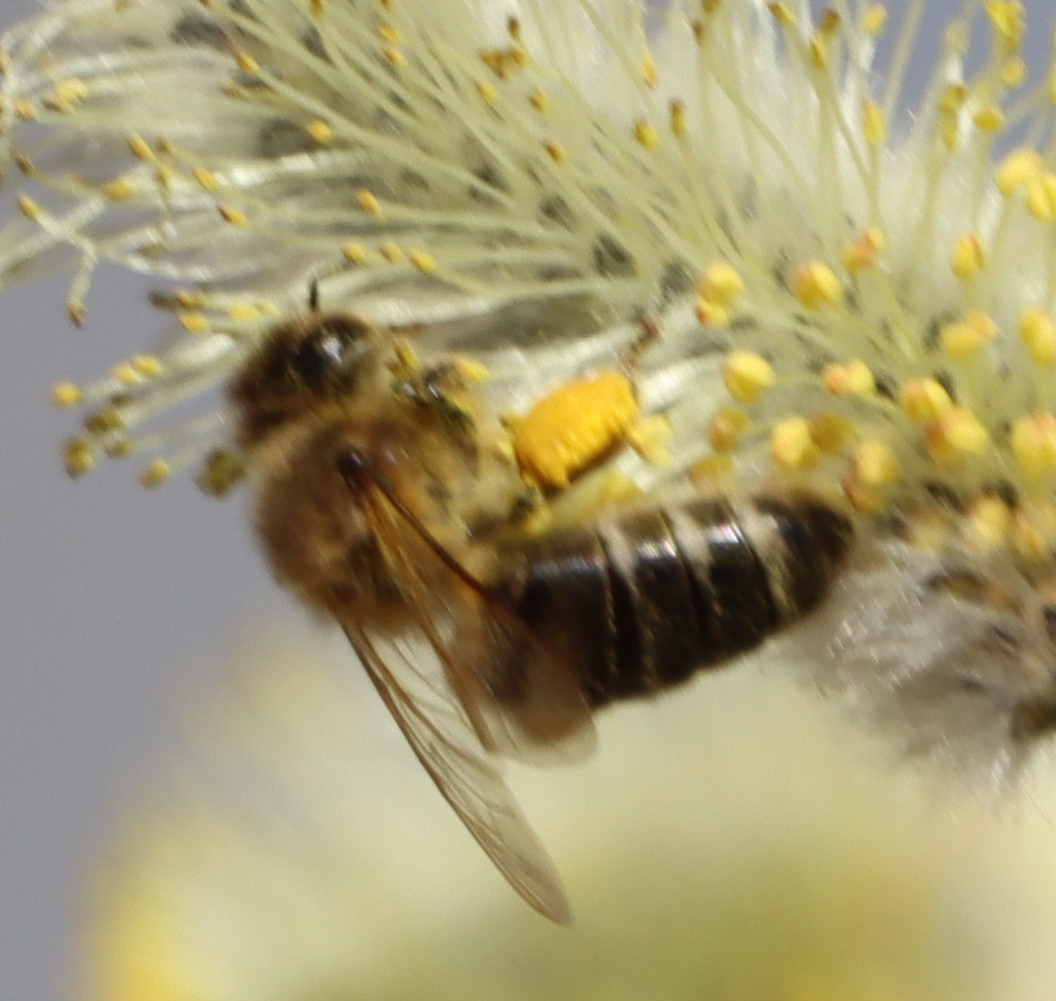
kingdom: Animalia
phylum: Arthropoda
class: Insecta
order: Hymenoptera
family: Apidae
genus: Apis
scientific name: Apis mellifera
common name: Honey bee
